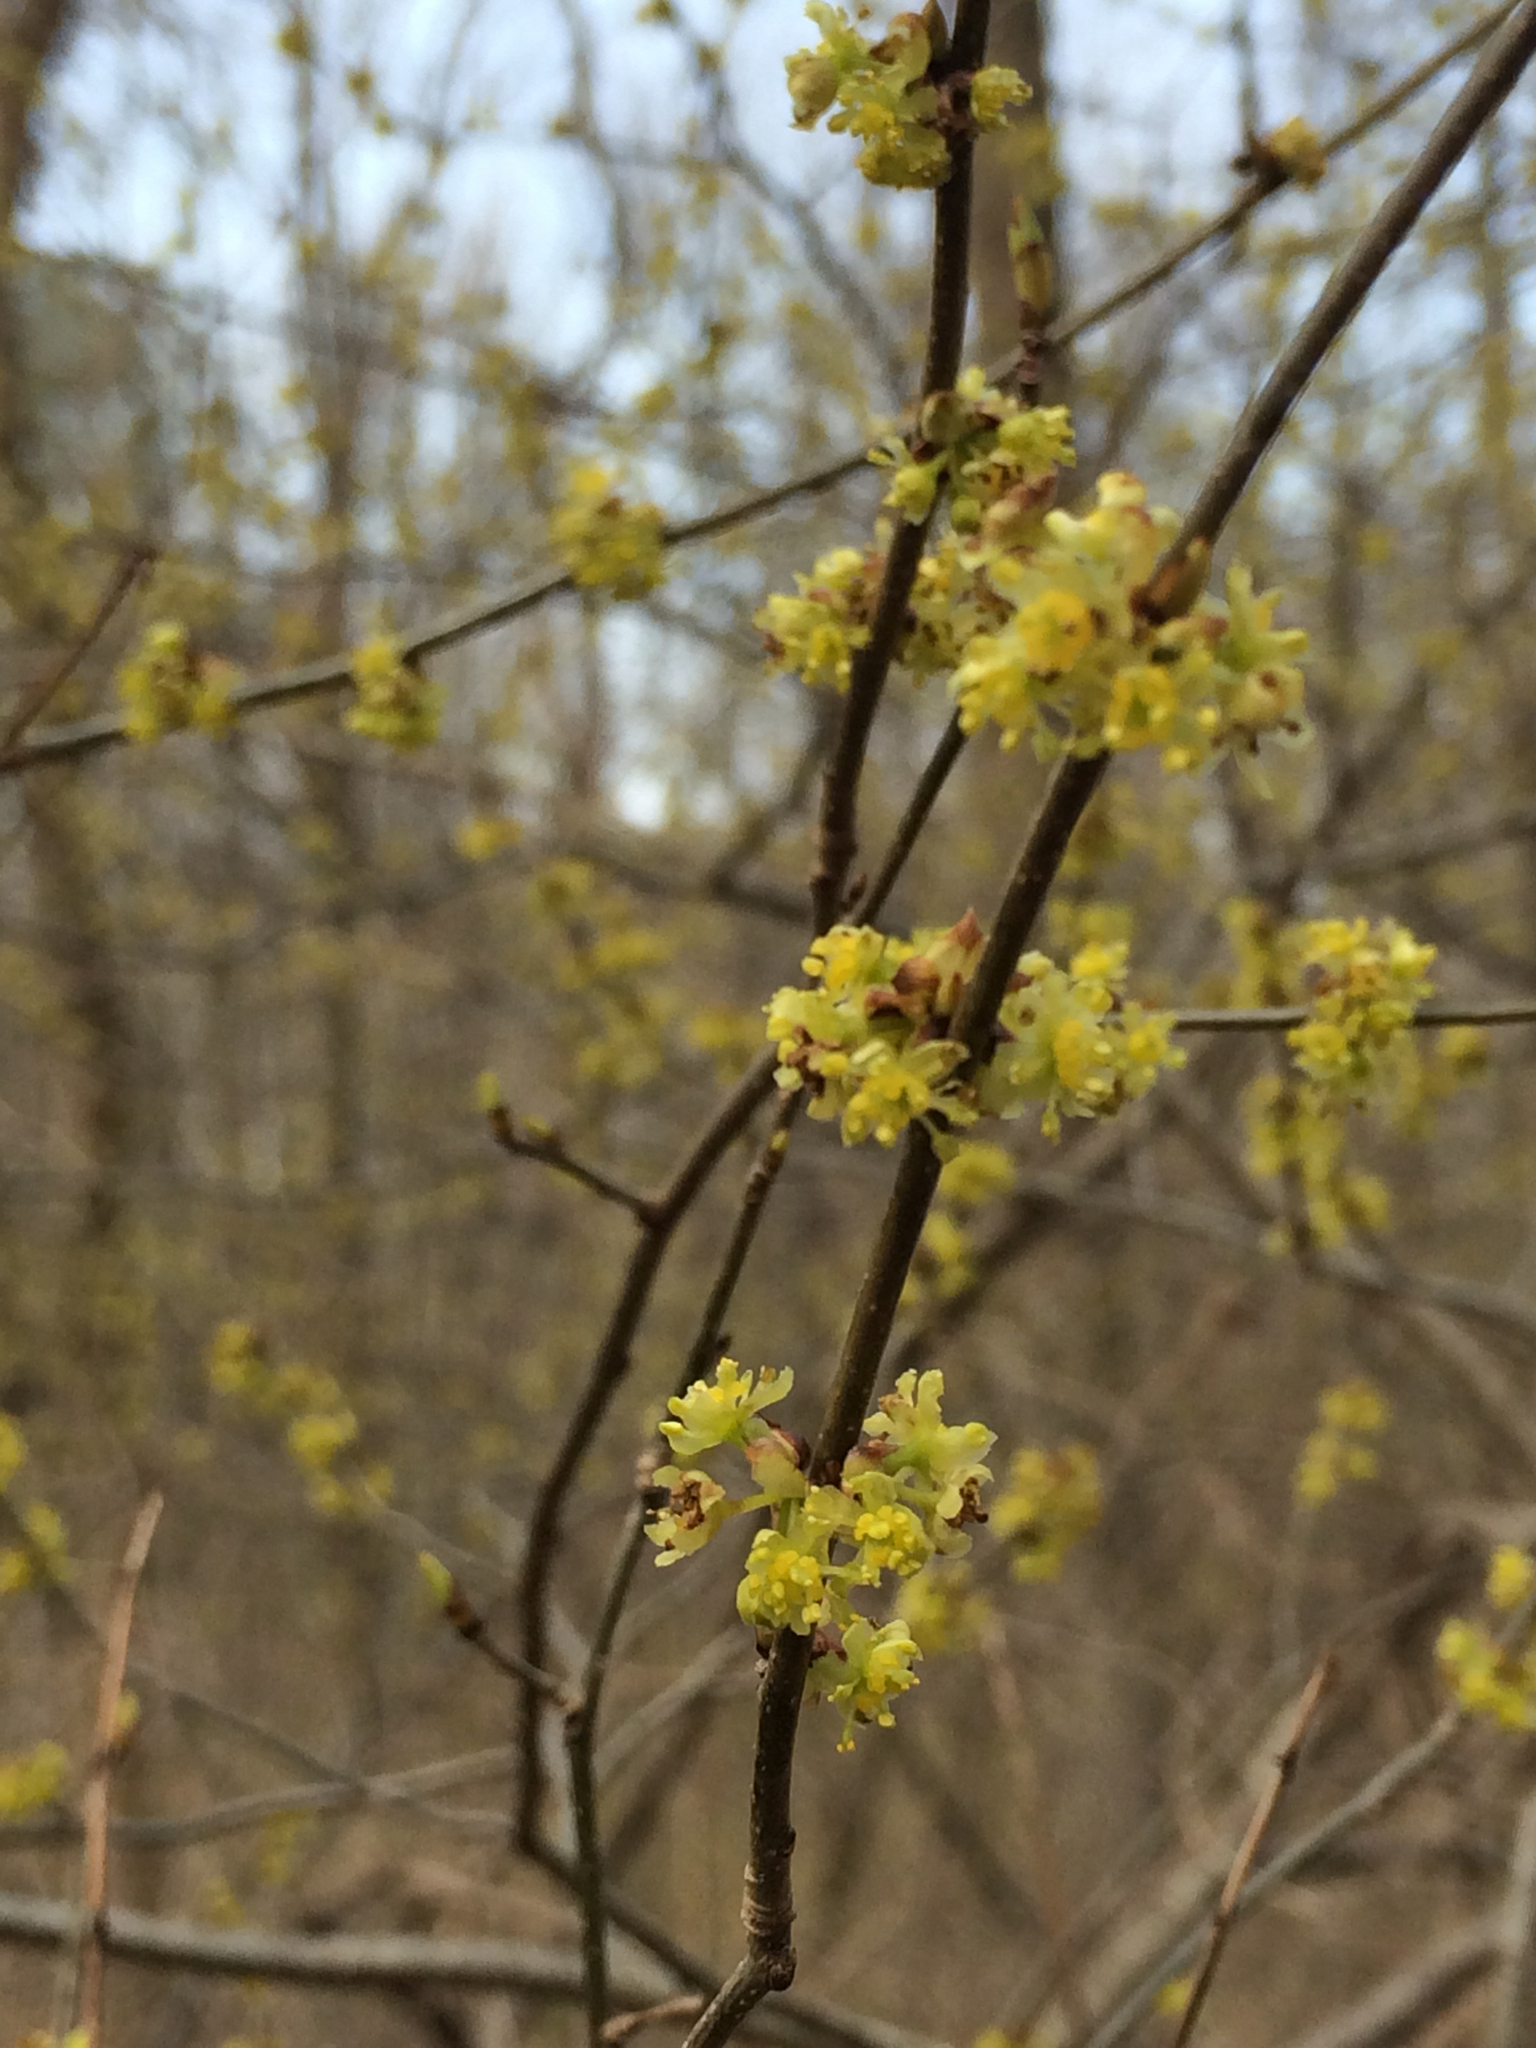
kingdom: Plantae
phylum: Tracheophyta
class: Magnoliopsida
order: Laurales
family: Lauraceae
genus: Lindera
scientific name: Lindera benzoin
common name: Spicebush
